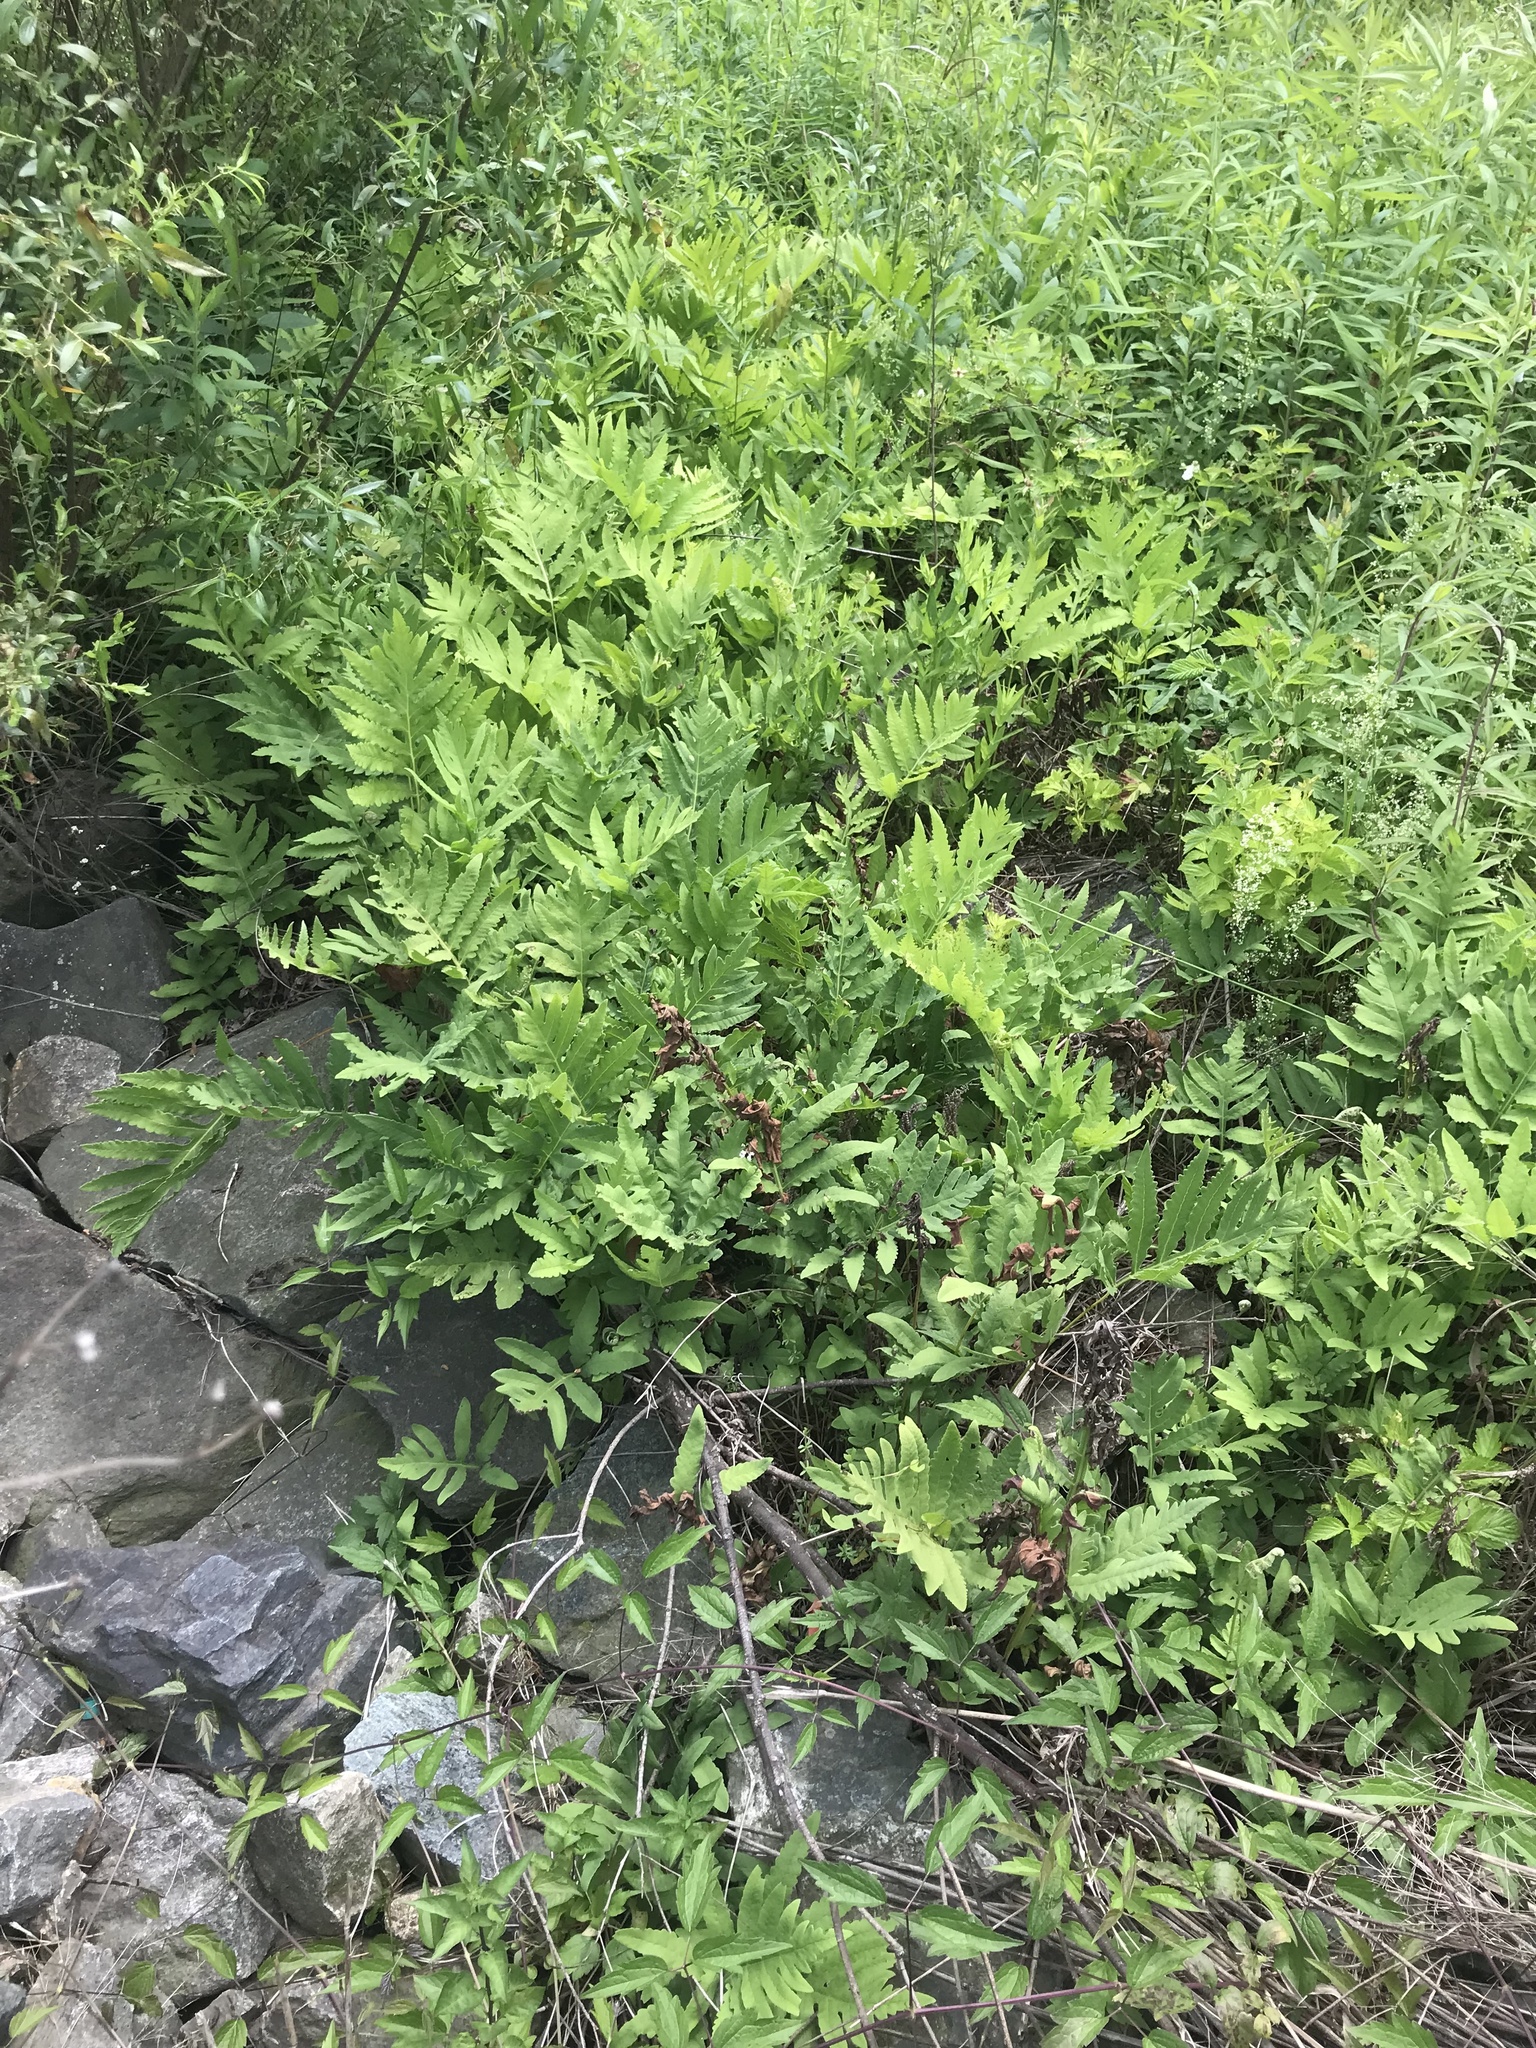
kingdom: Plantae
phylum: Tracheophyta
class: Polypodiopsida
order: Polypodiales
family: Onocleaceae
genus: Onoclea
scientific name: Onoclea sensibilis
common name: Sensitive fern
